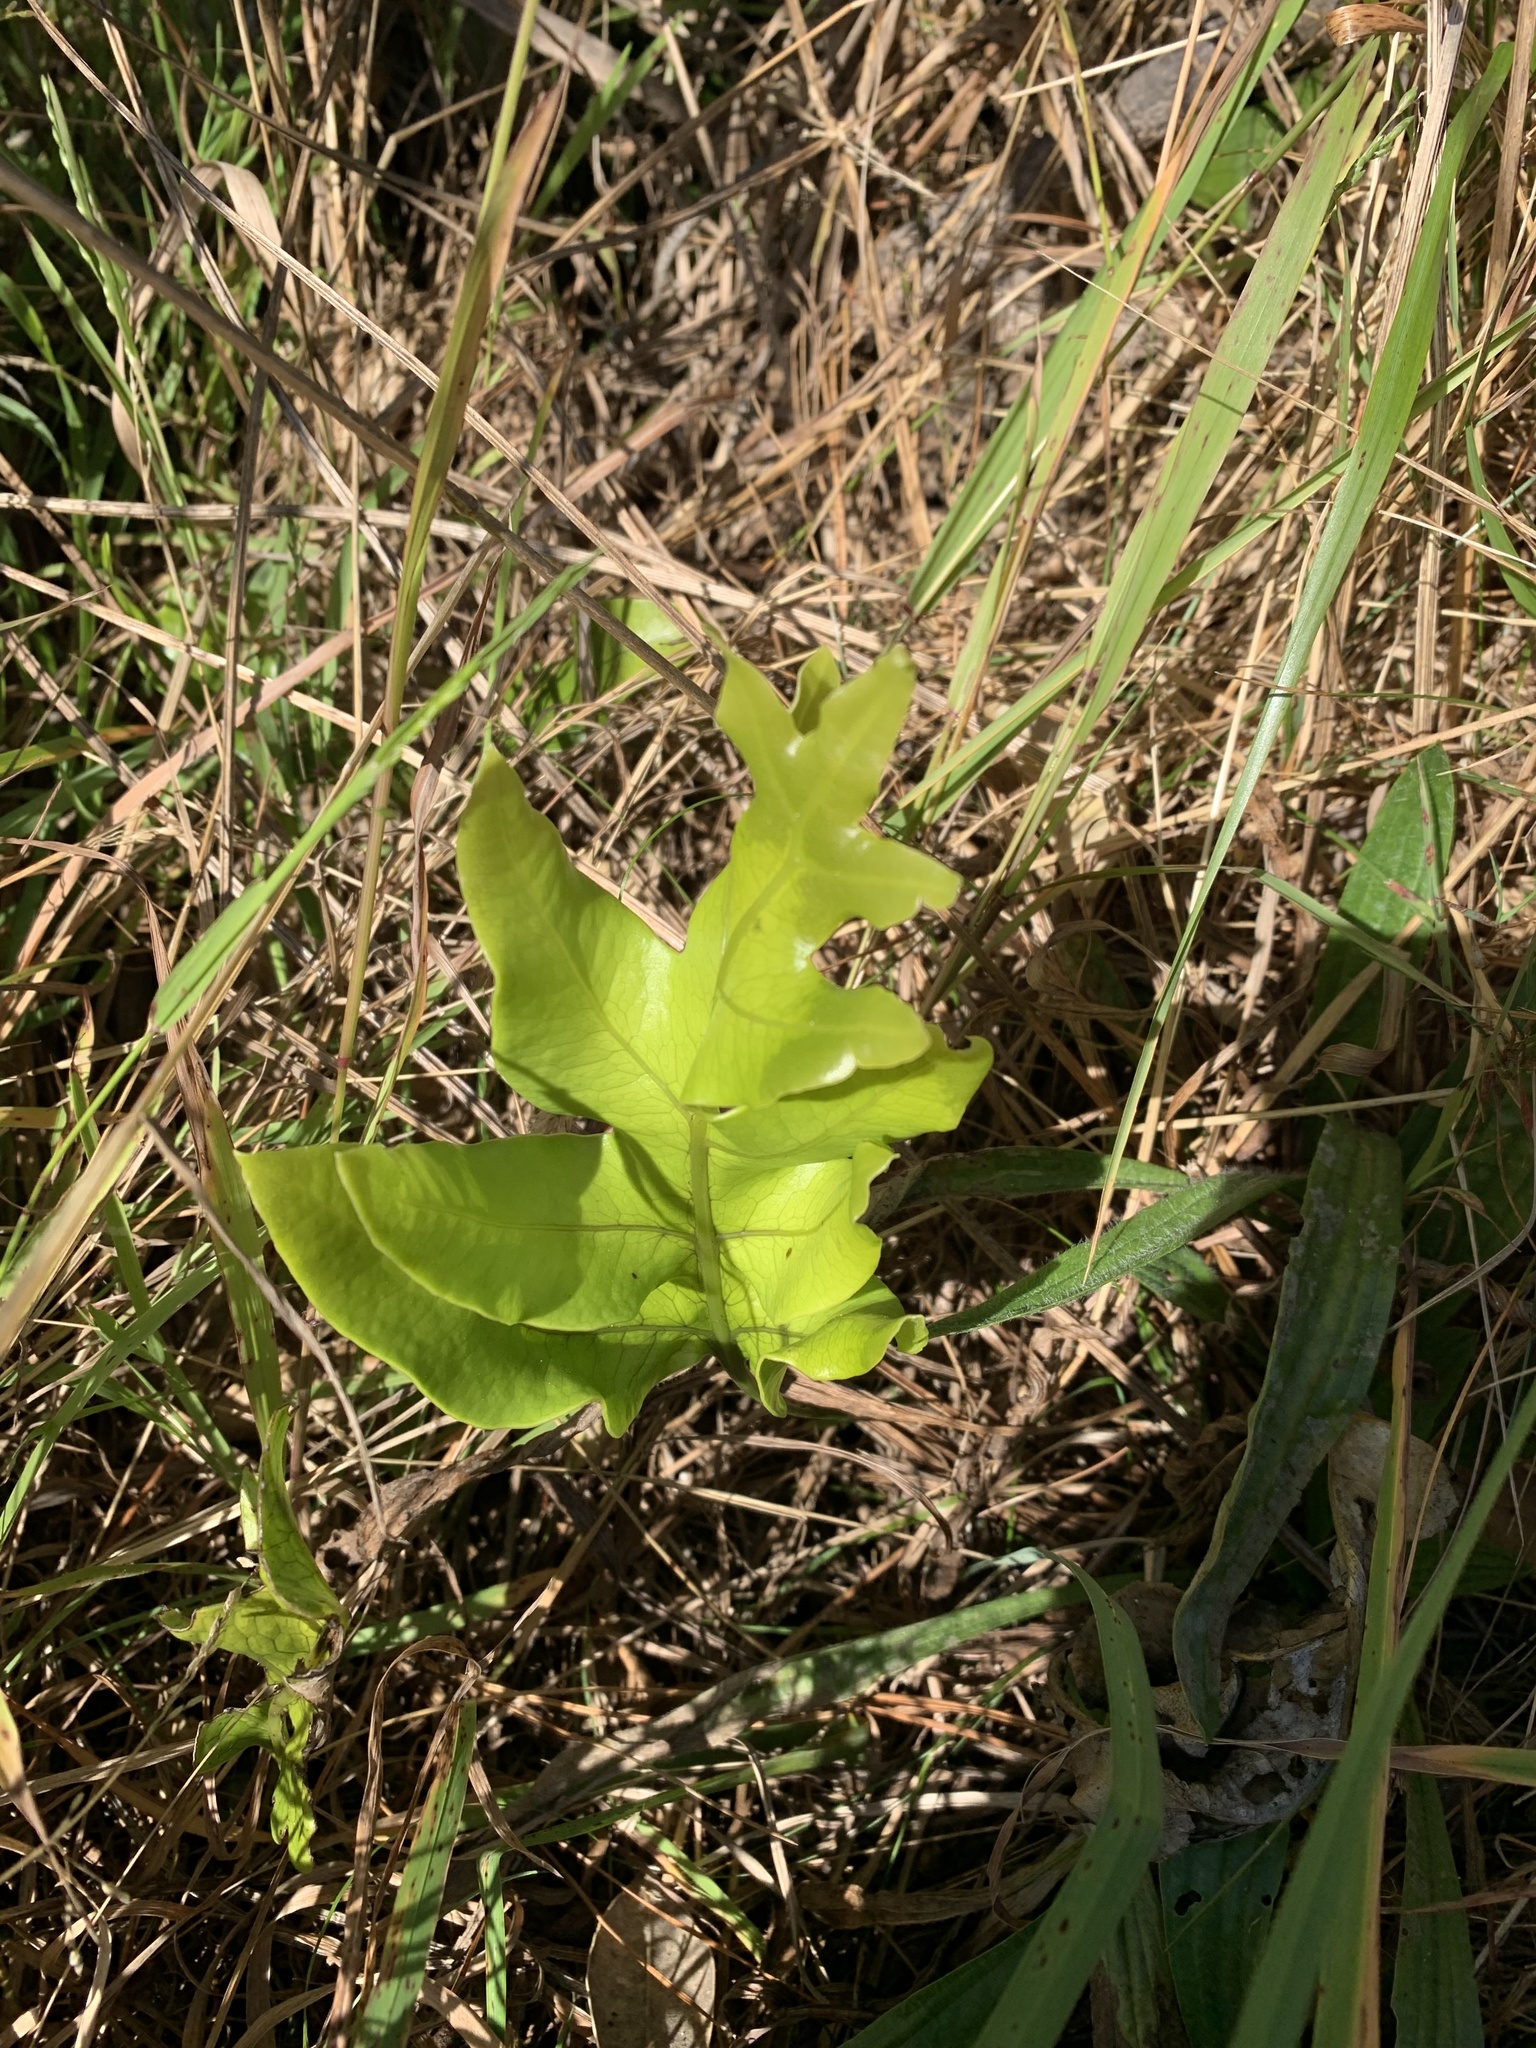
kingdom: Plantae
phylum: Tracheophyta
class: Polypodiopsida
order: Polypodiales
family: Polypodiaceae
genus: Lecanopteris
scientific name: Lecanopteris pustulata
